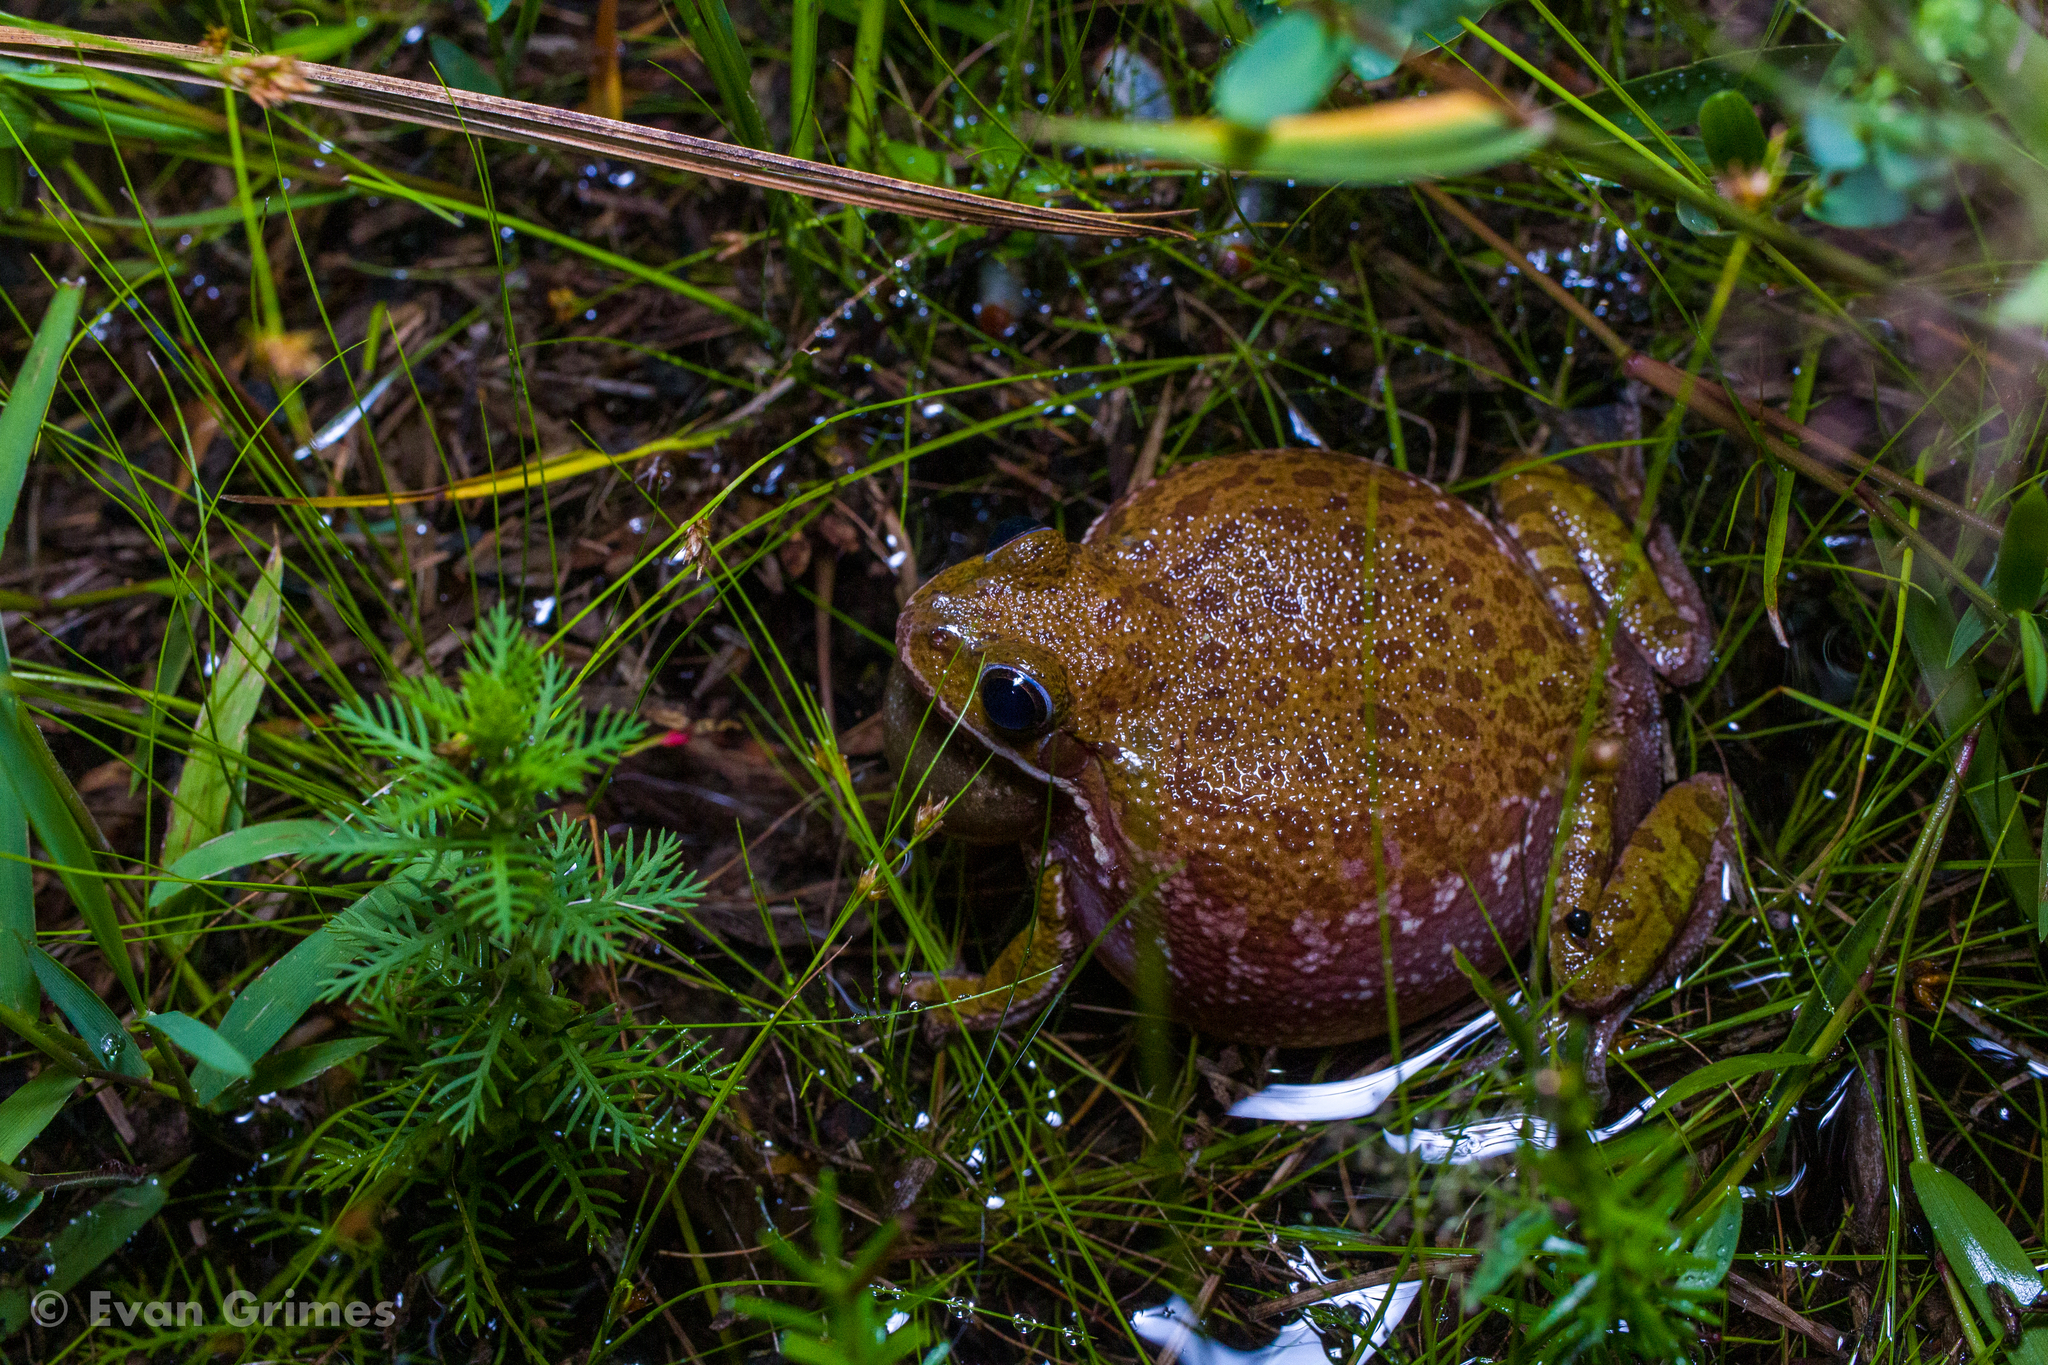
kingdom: Animalia
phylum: Chordata
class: Amphibia
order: Anura
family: Hylidae
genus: Dryophytes
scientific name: Dryophytes gratiosus
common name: Barking treefrog
